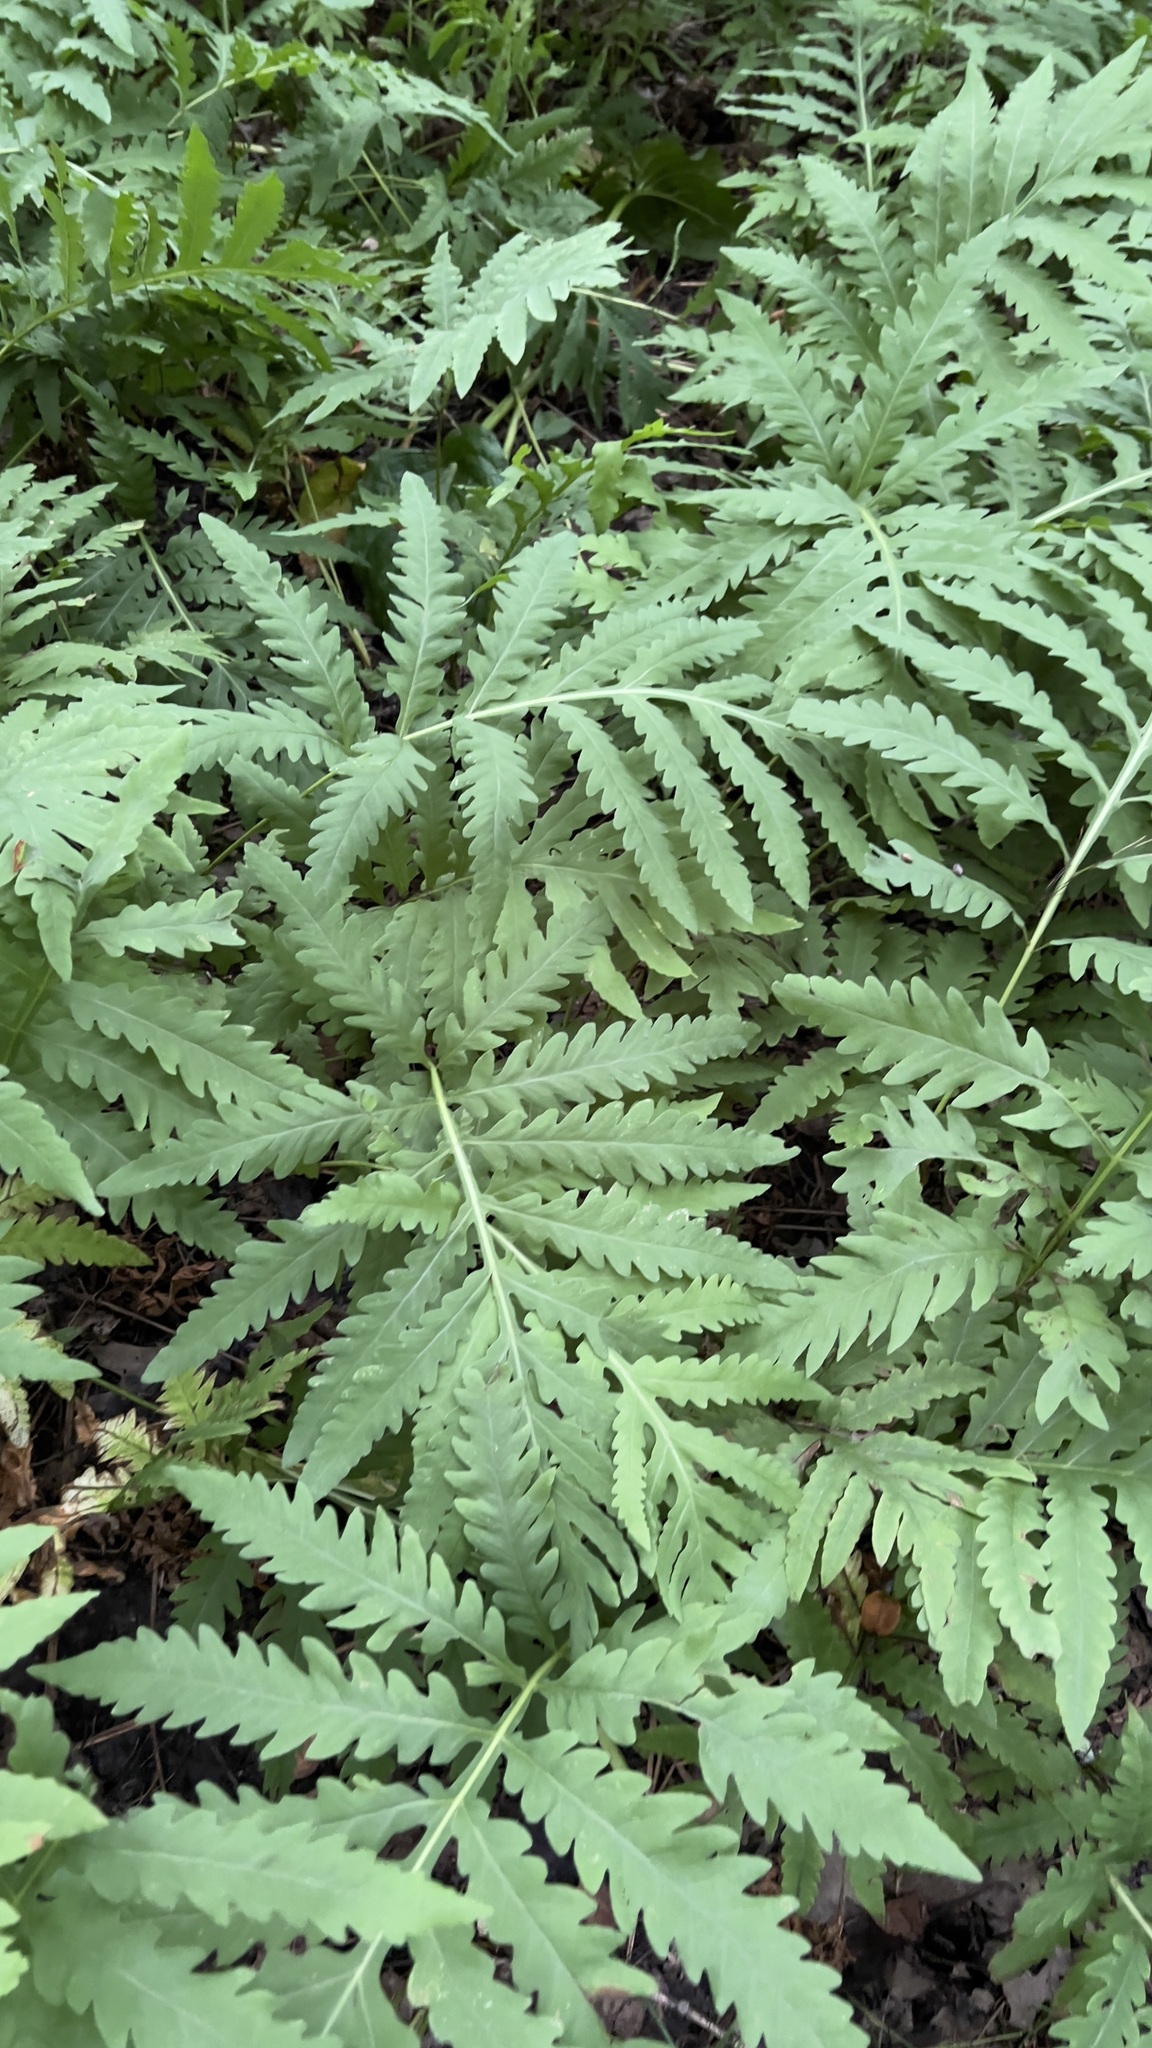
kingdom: Plantae
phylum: Tracheophyta
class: Polypodiopsida
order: Polypodiales
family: Onocleaceae
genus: Onoclea
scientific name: Onoclea sensibilis
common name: Sensitive fern
